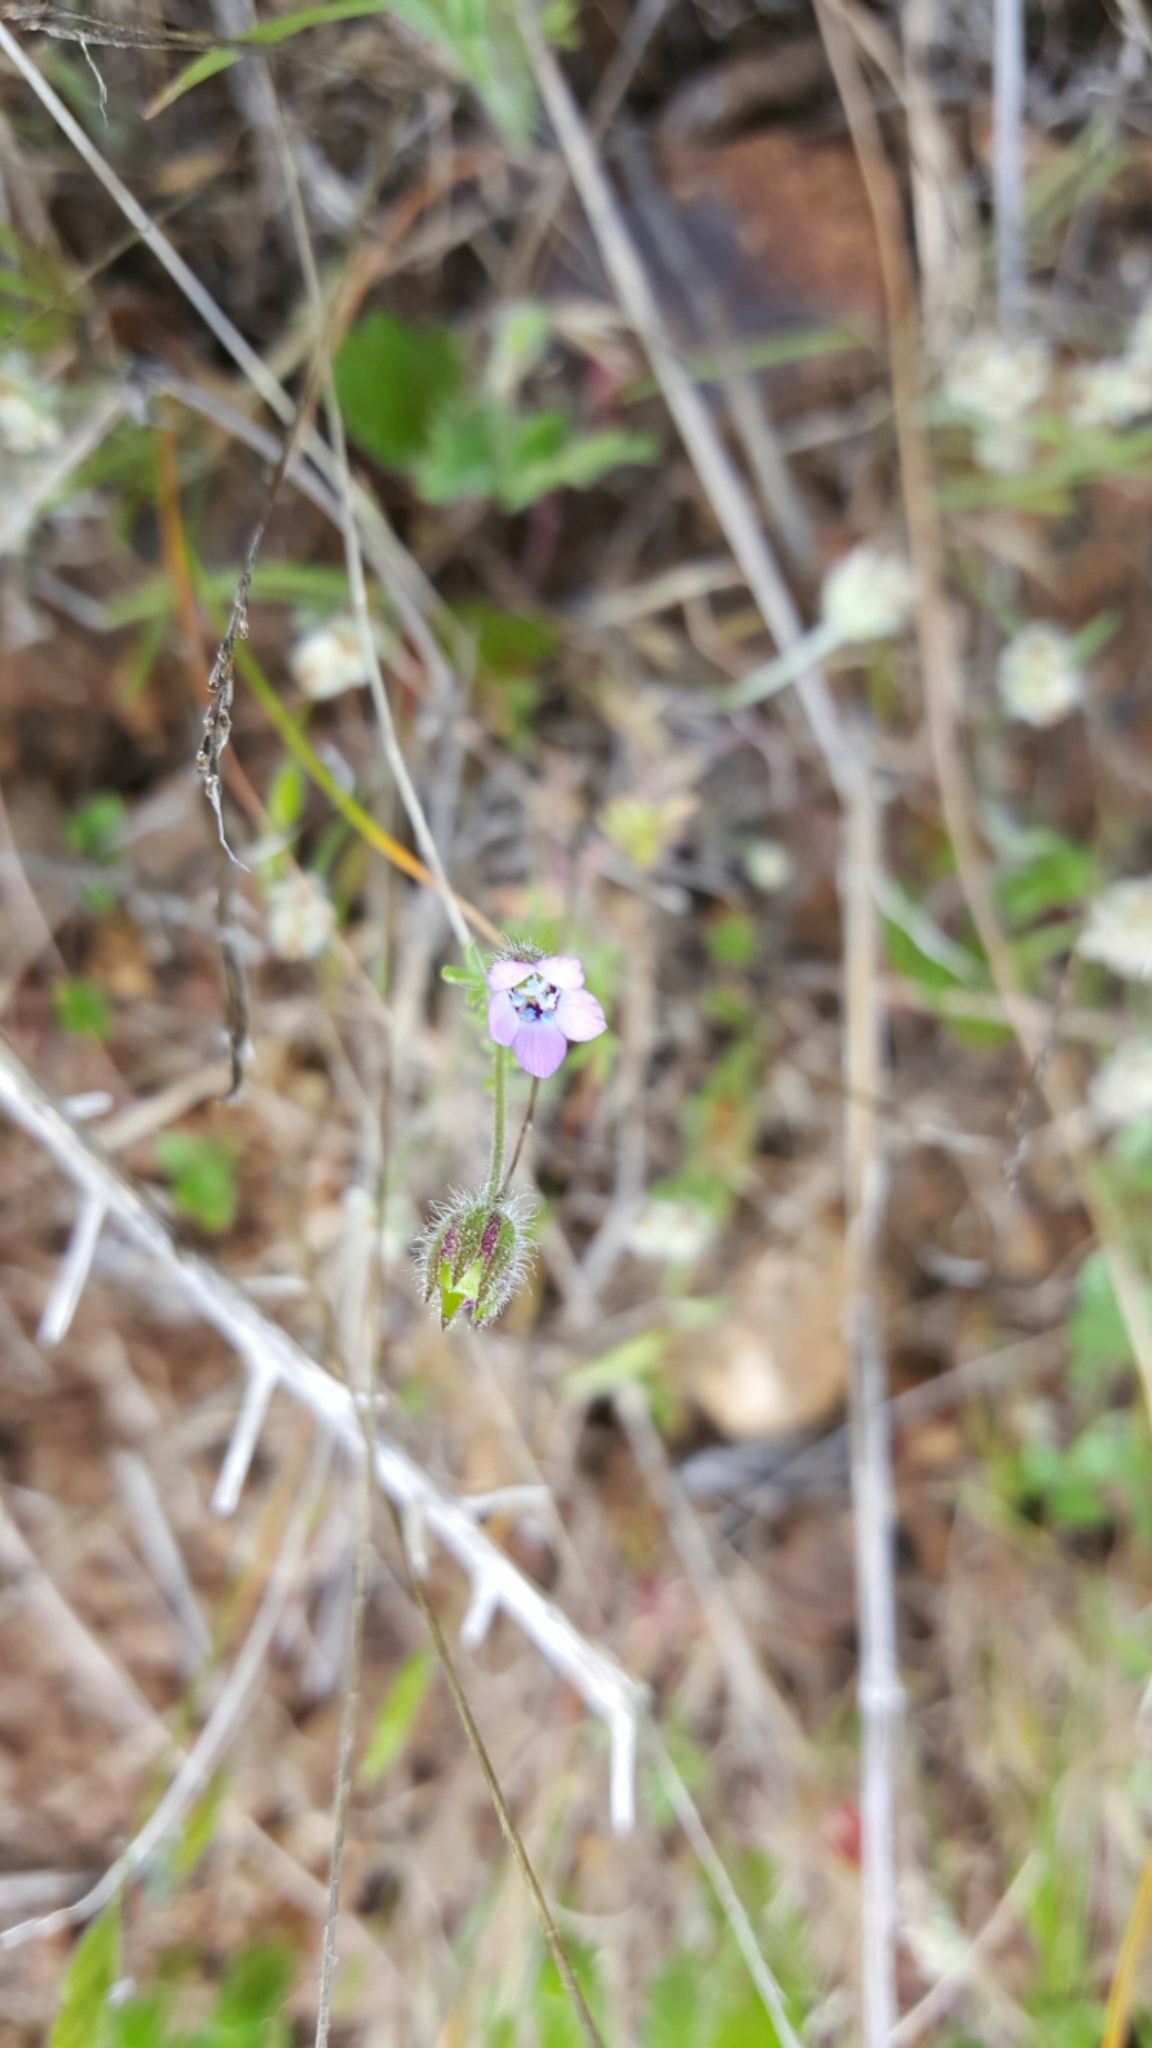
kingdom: Plantae
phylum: Tracheophyta
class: Magnoliopsida
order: Ericales
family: Polemoniaceae
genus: Gilia
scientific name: Gilia clivorum
